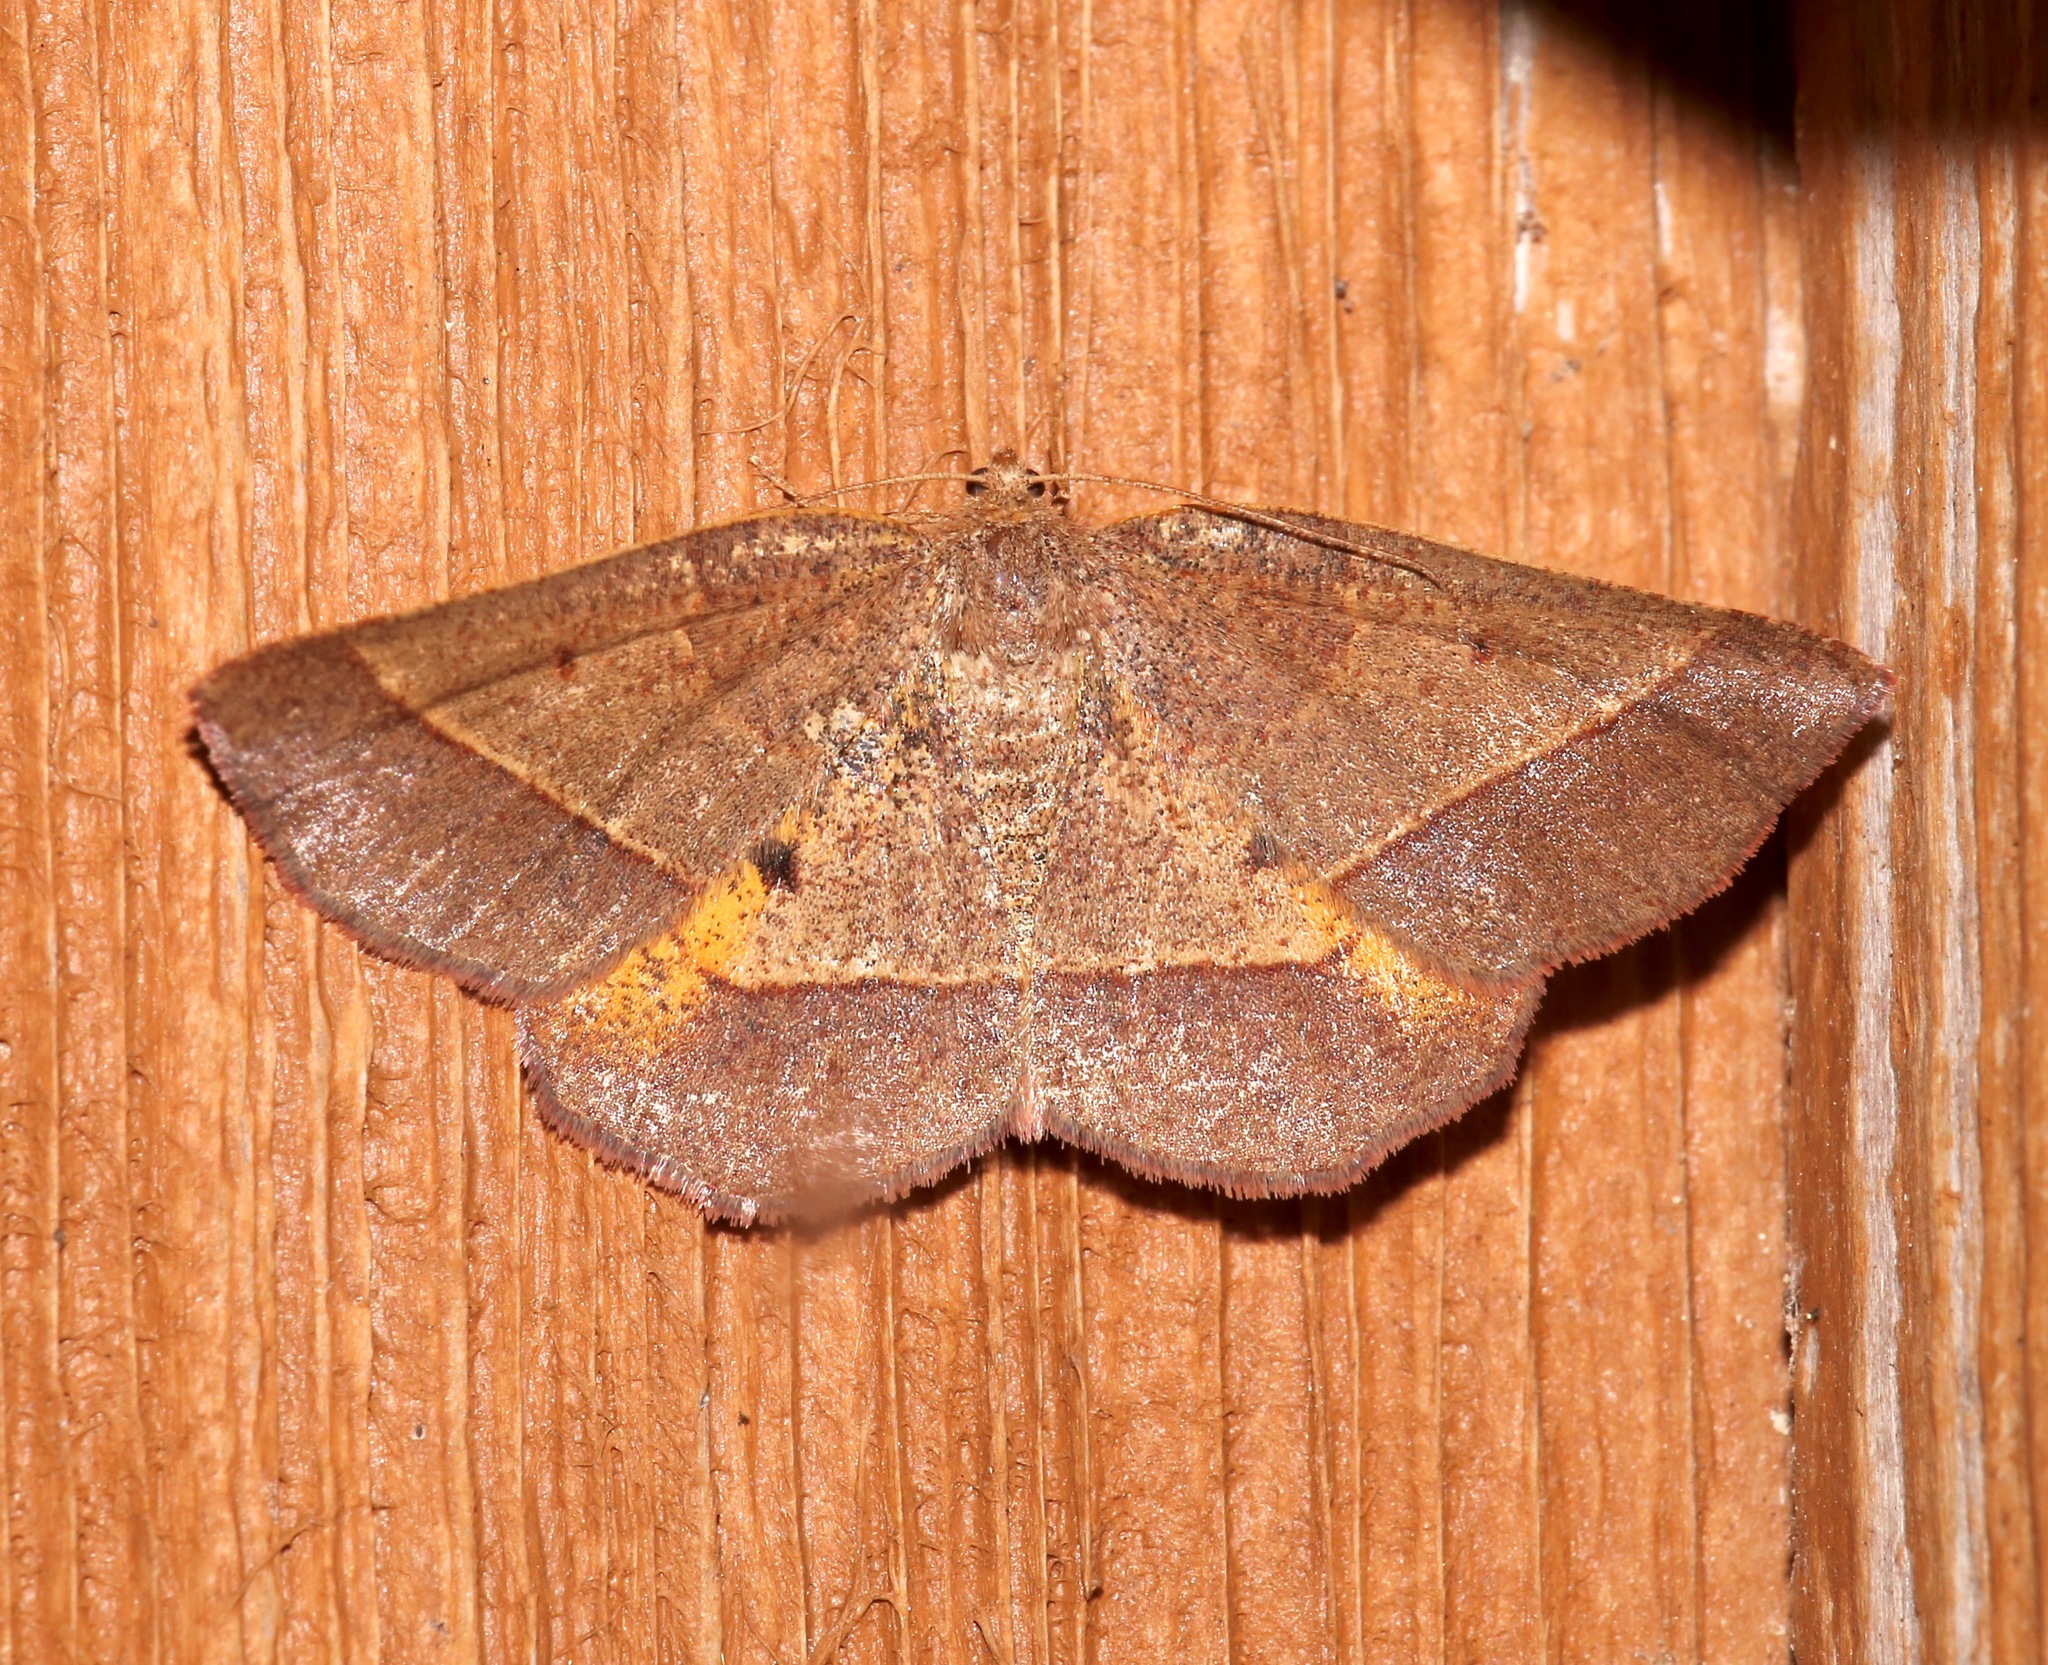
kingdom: Animalia
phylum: Arthropoda
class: Insecta
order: Lepidoptera
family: Geometridae
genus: Metarranthis
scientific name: Metarranthis obfirmaria
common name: Yellow-washed metarranthis
